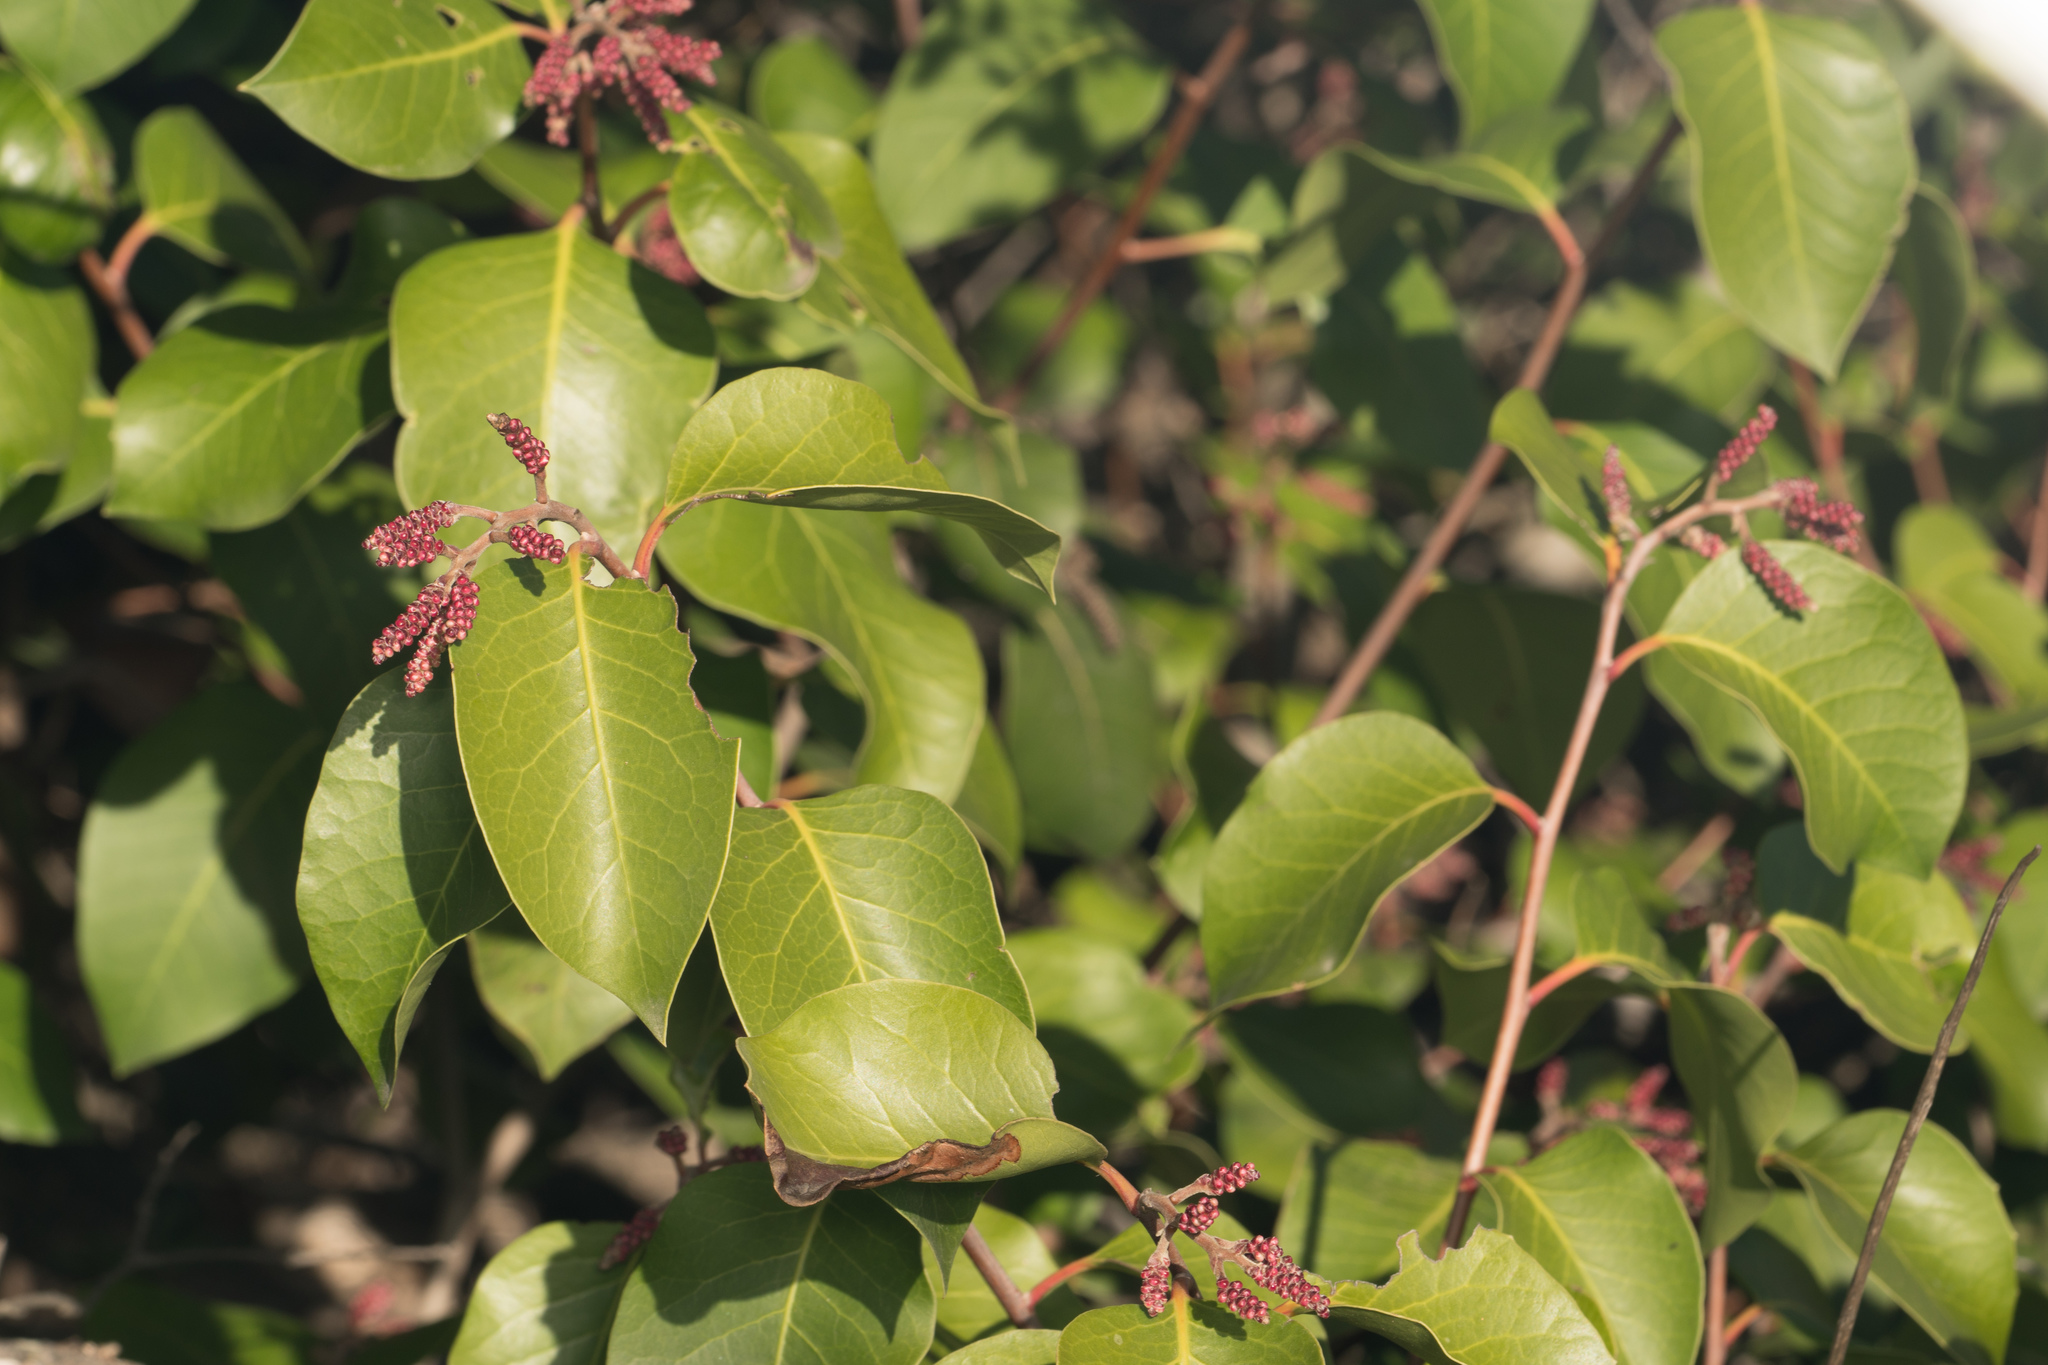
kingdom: Plantae
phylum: Tracheophyta
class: Magnoliopsida
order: Sapindales
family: Anacardiaceae
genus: Rhus
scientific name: Rhus ovata
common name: Sugar sumac
